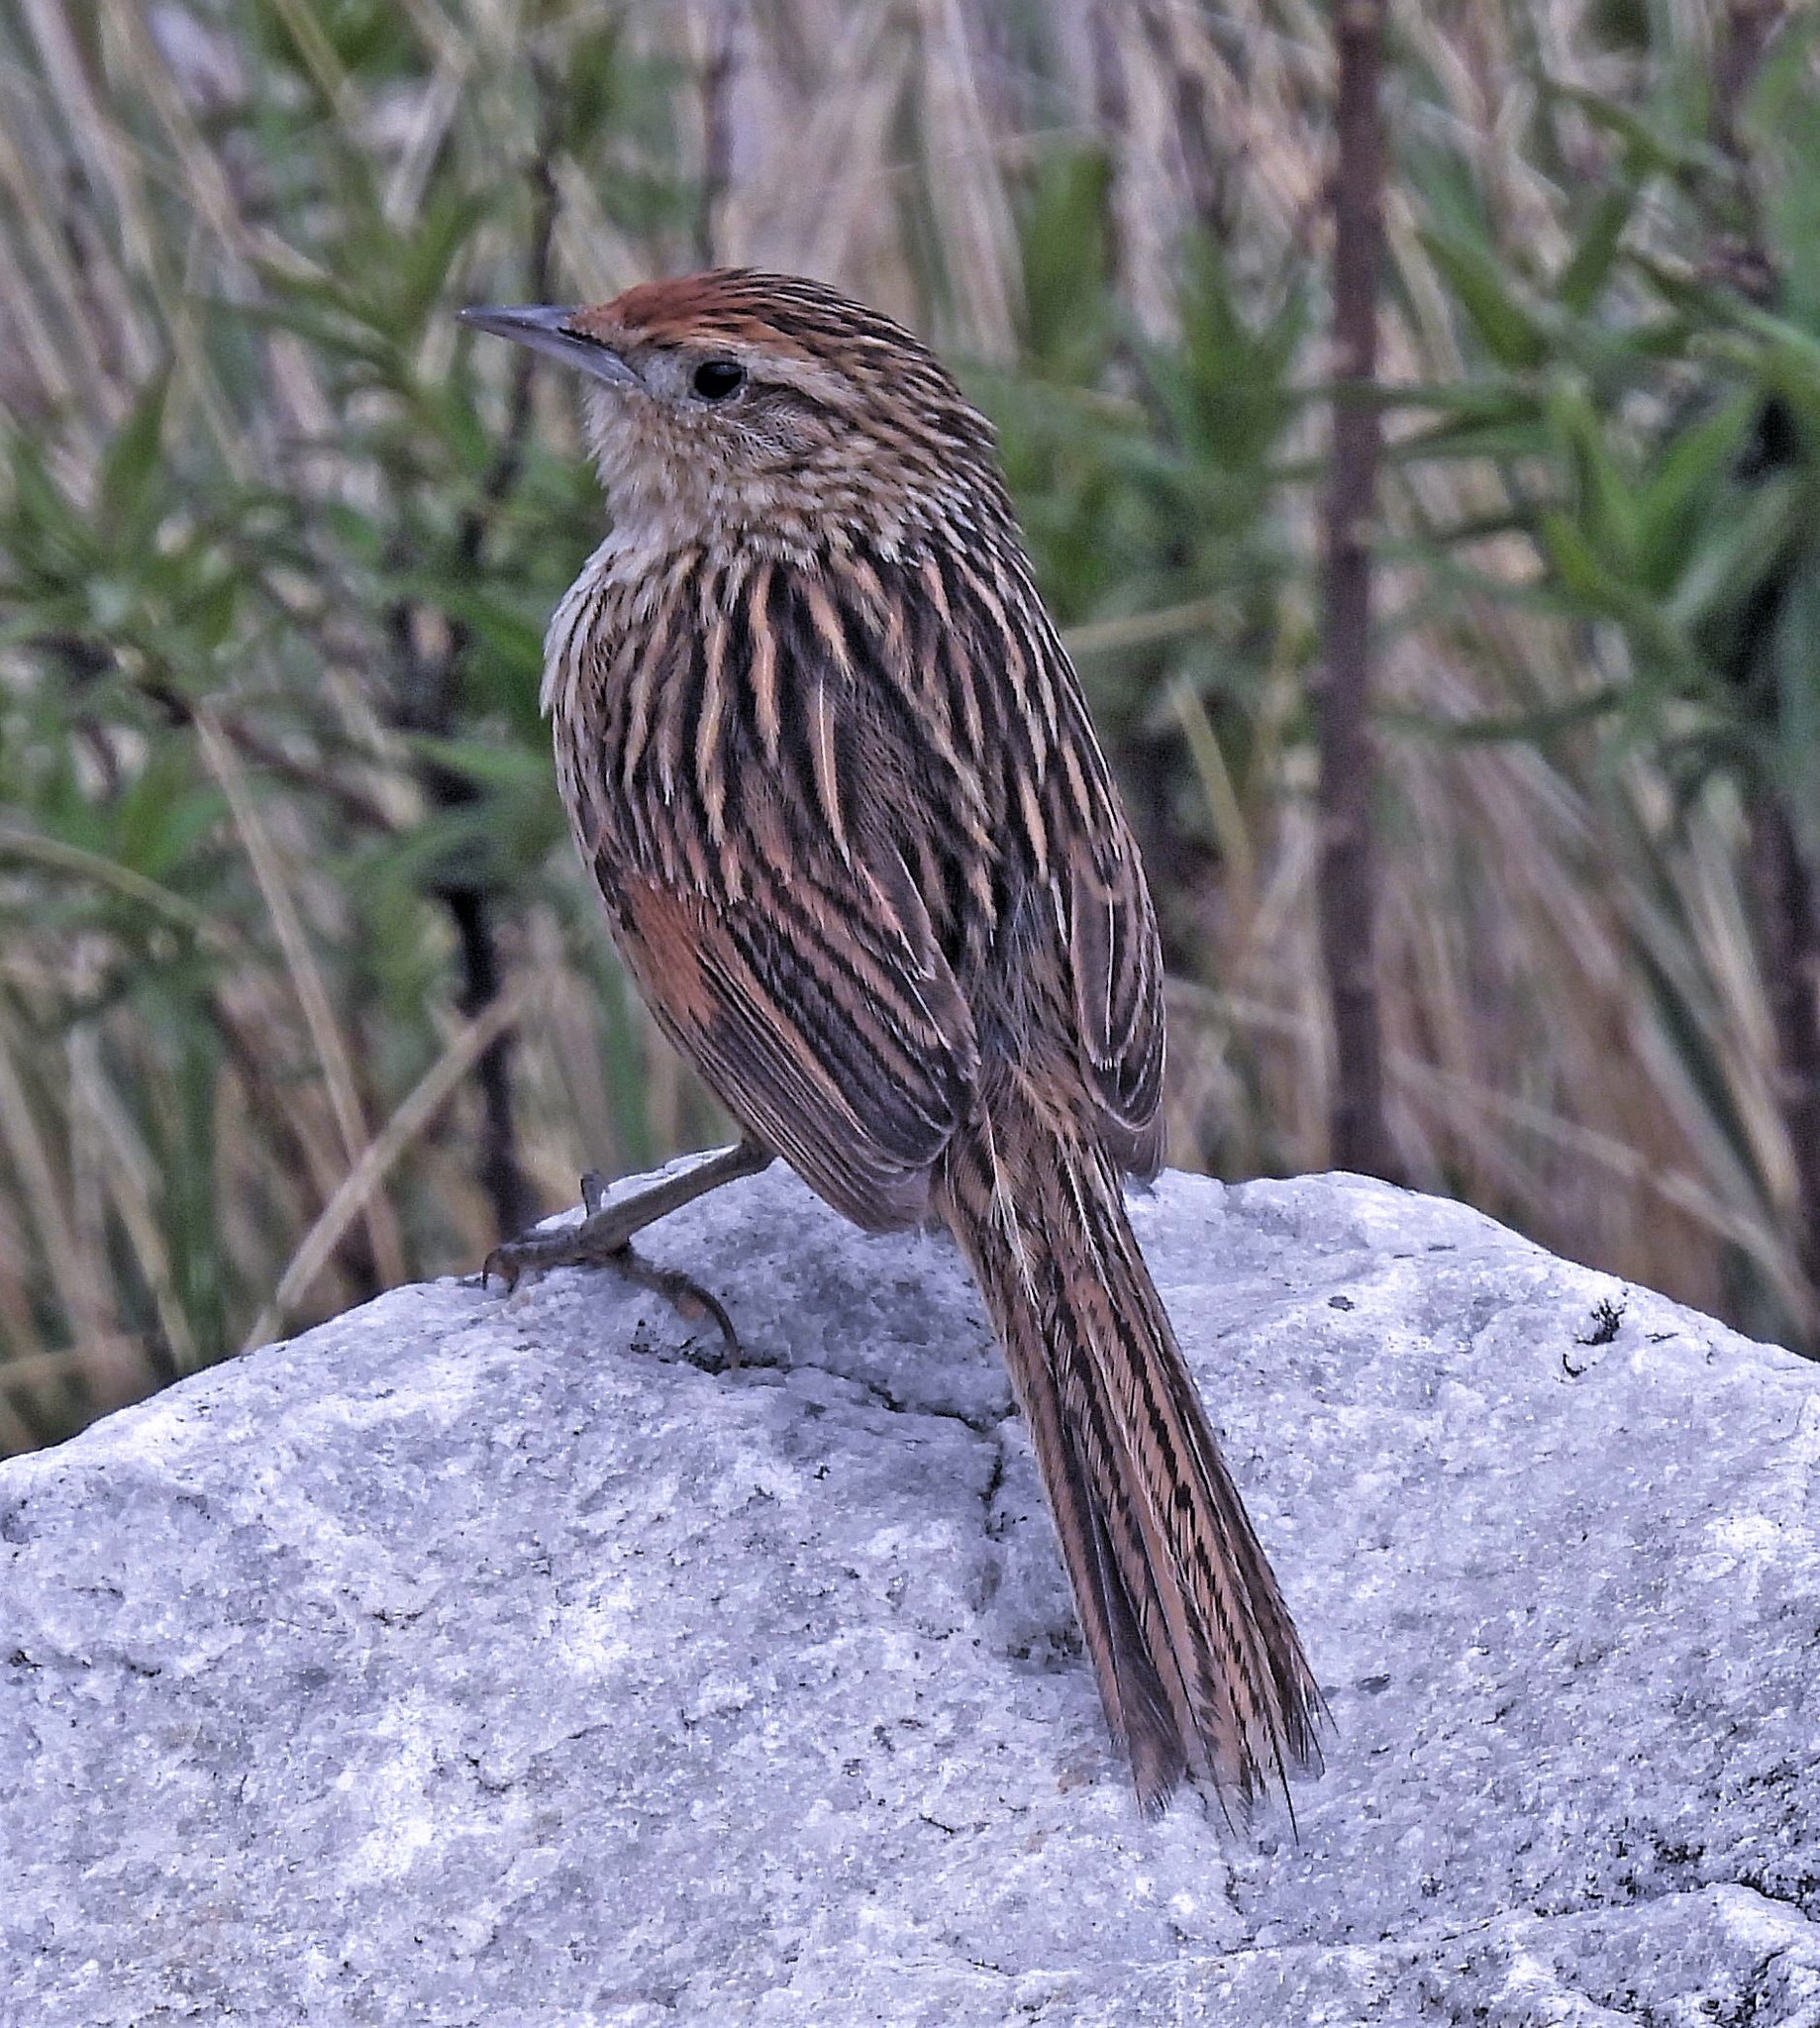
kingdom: Animalia
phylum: Chordata
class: Aves
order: Passeriformes
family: Furnariidae
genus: Asthenes
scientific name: Asthenes maculicauda
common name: Scribble-tailed canastero
